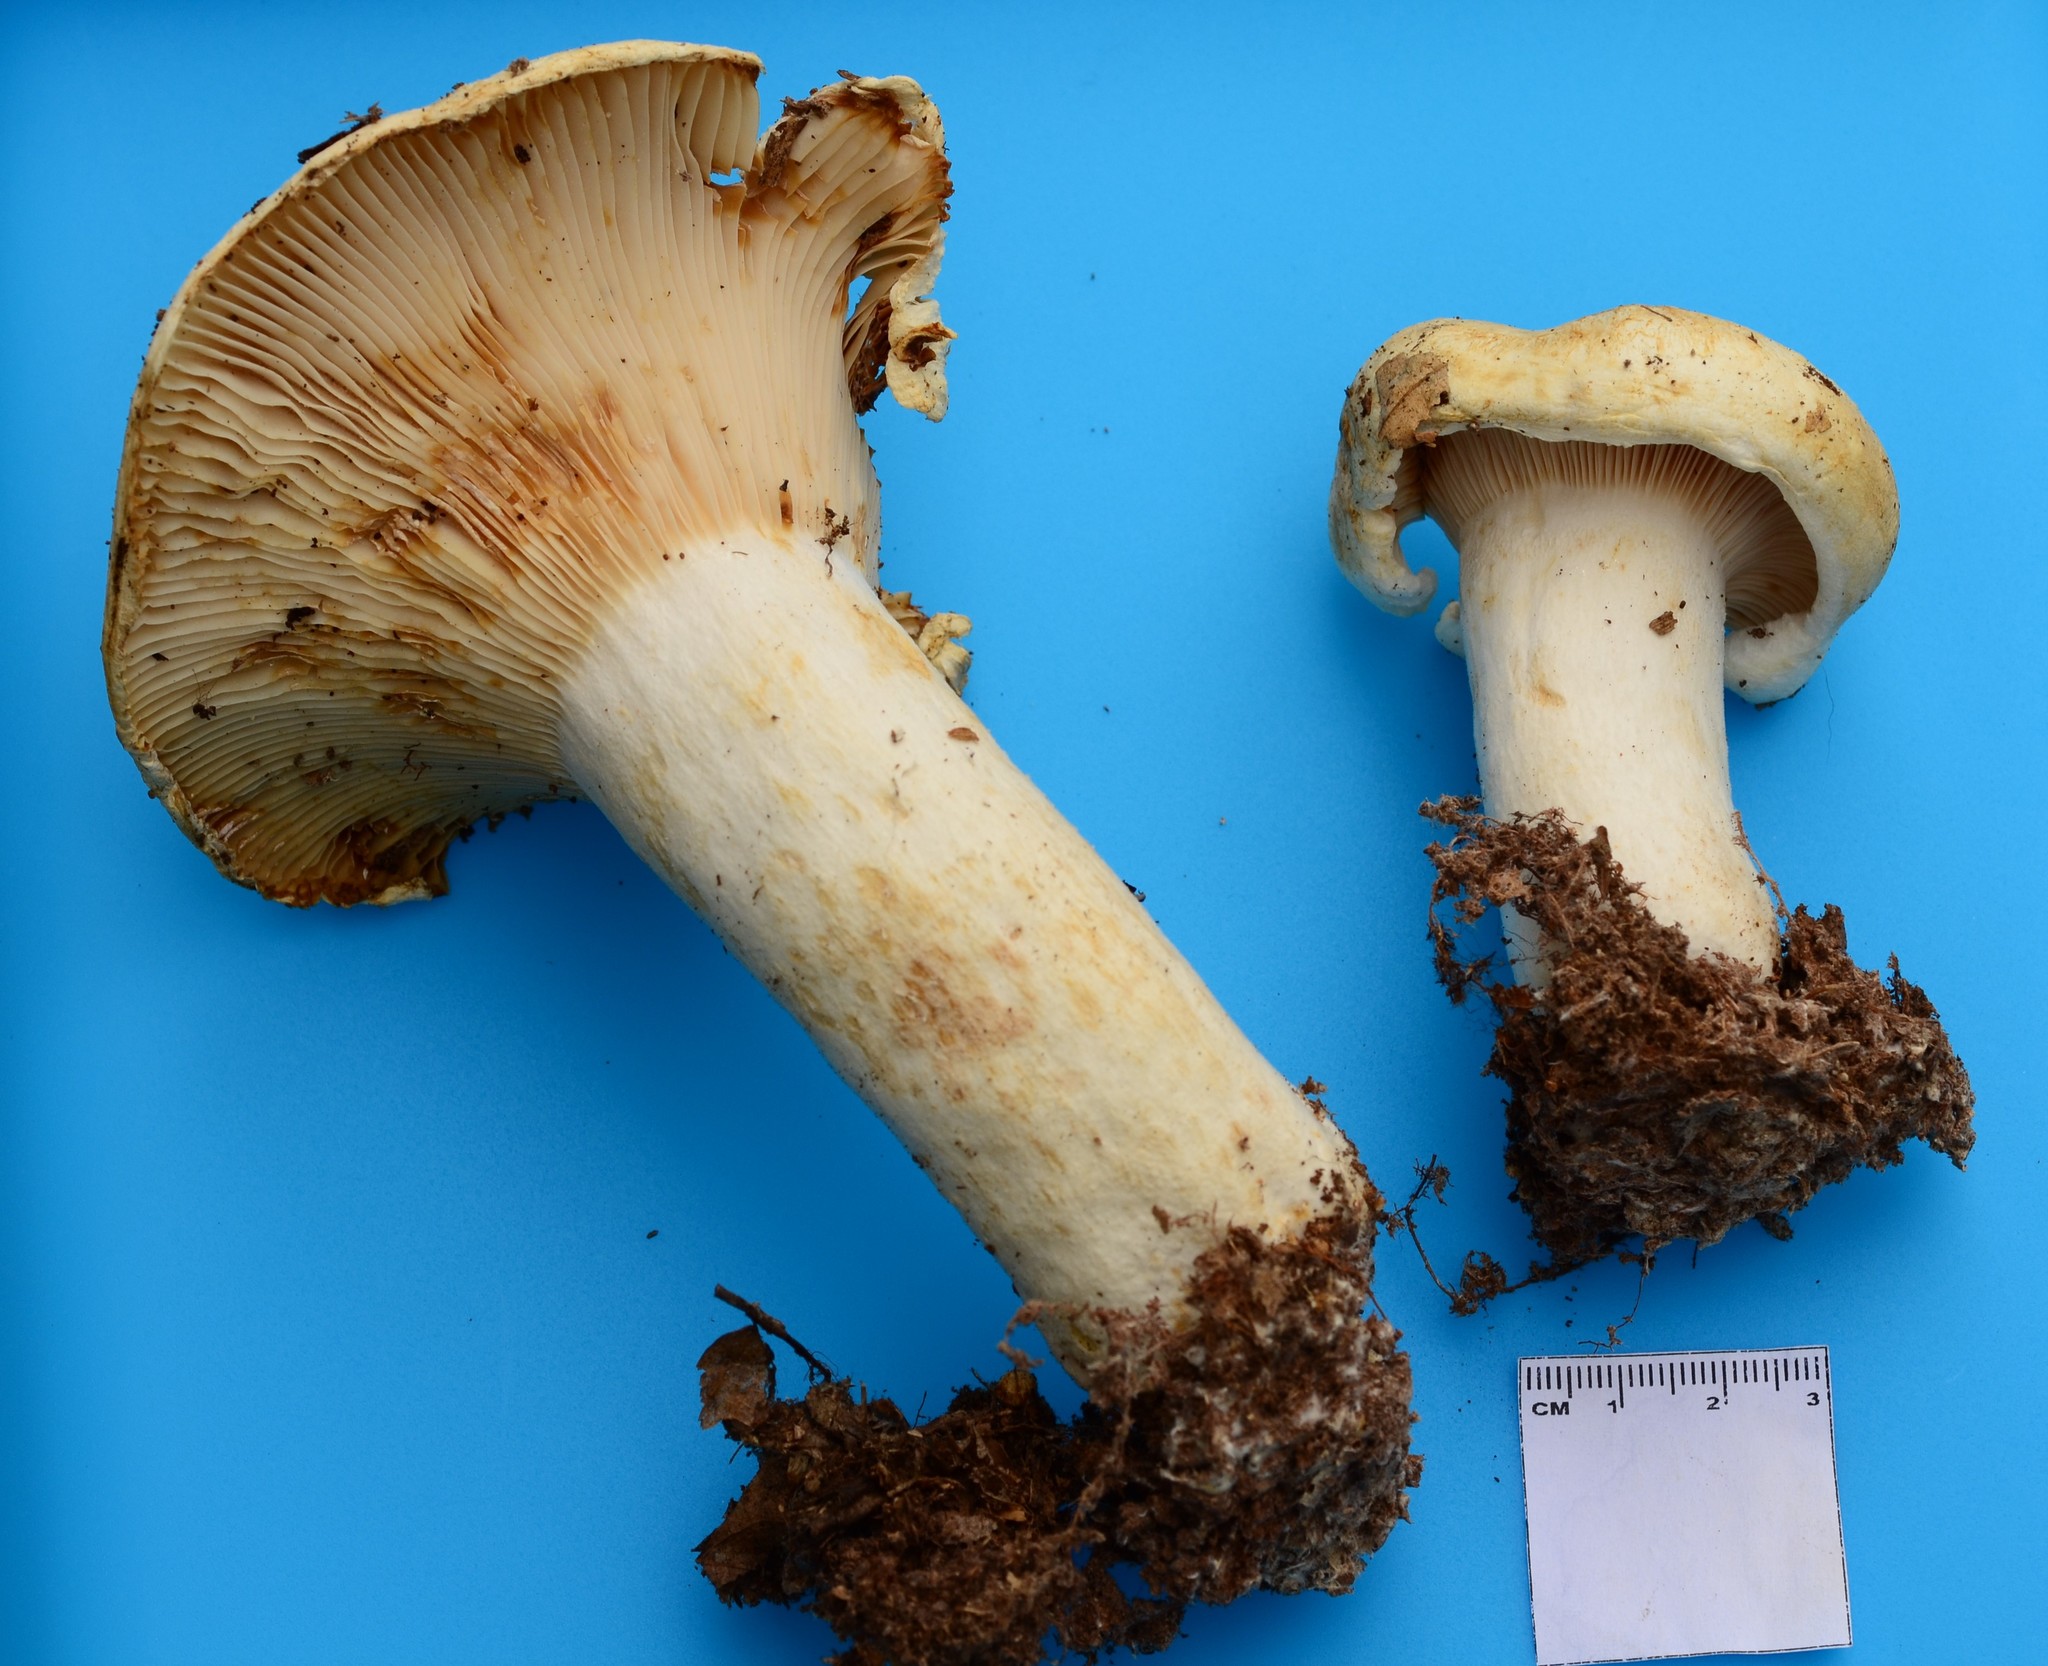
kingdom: Fungi
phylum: Basidiomycota
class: Agaricomycetes
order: Russulales
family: Russulaceae
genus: Lactifluus
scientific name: Lactifluus
